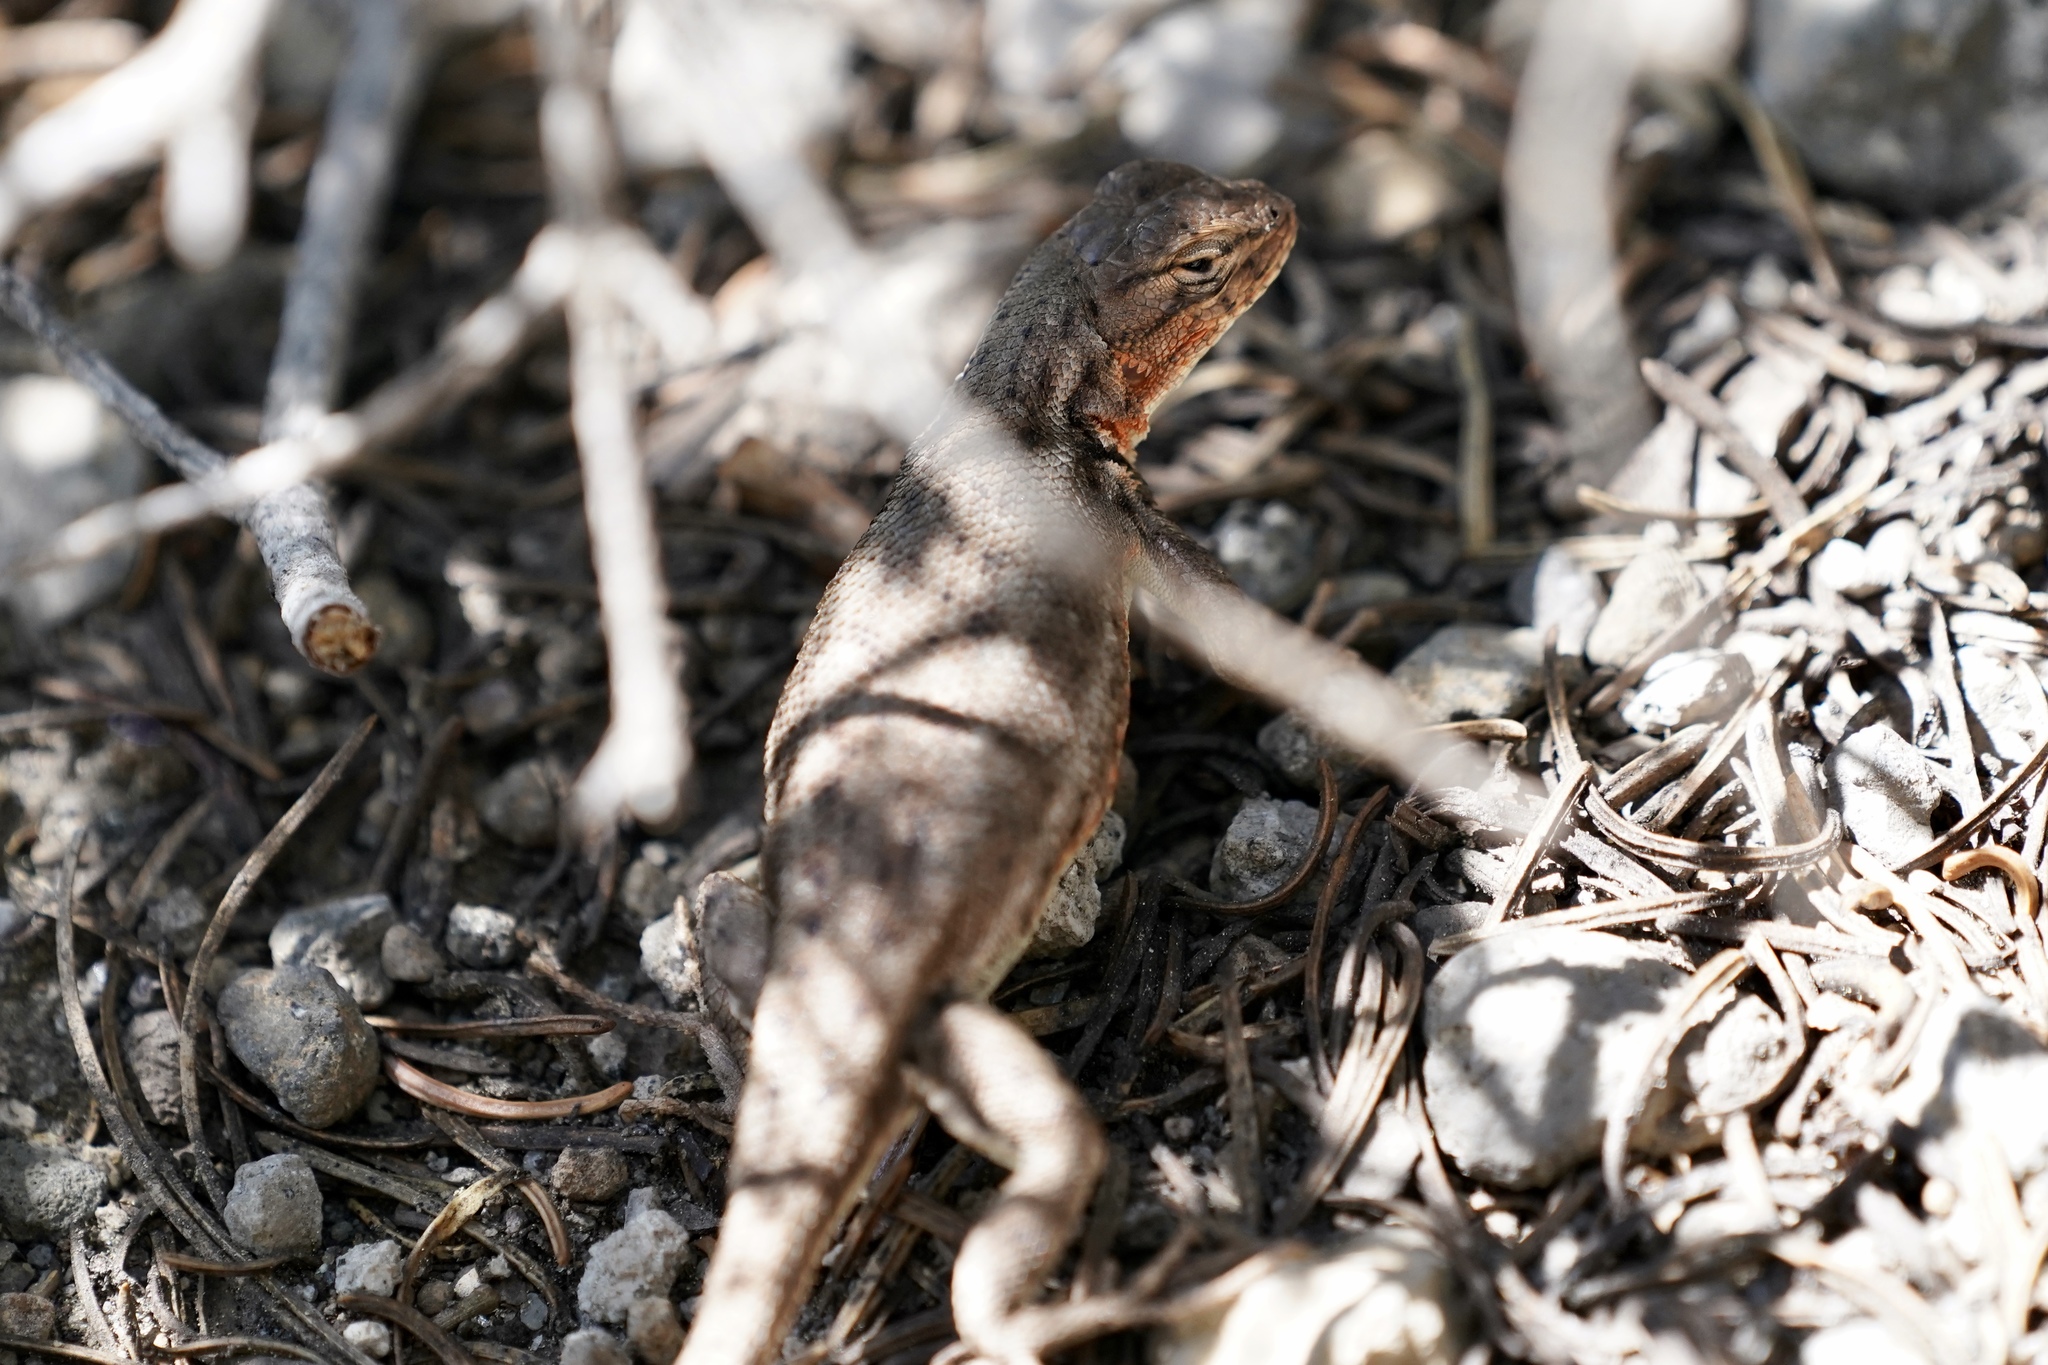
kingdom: Animalia
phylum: Chordata
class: Squamata
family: Phrynosomatidae
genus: Sceloporus
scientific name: Sceloporus graciosus
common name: Sagebrush lizard
